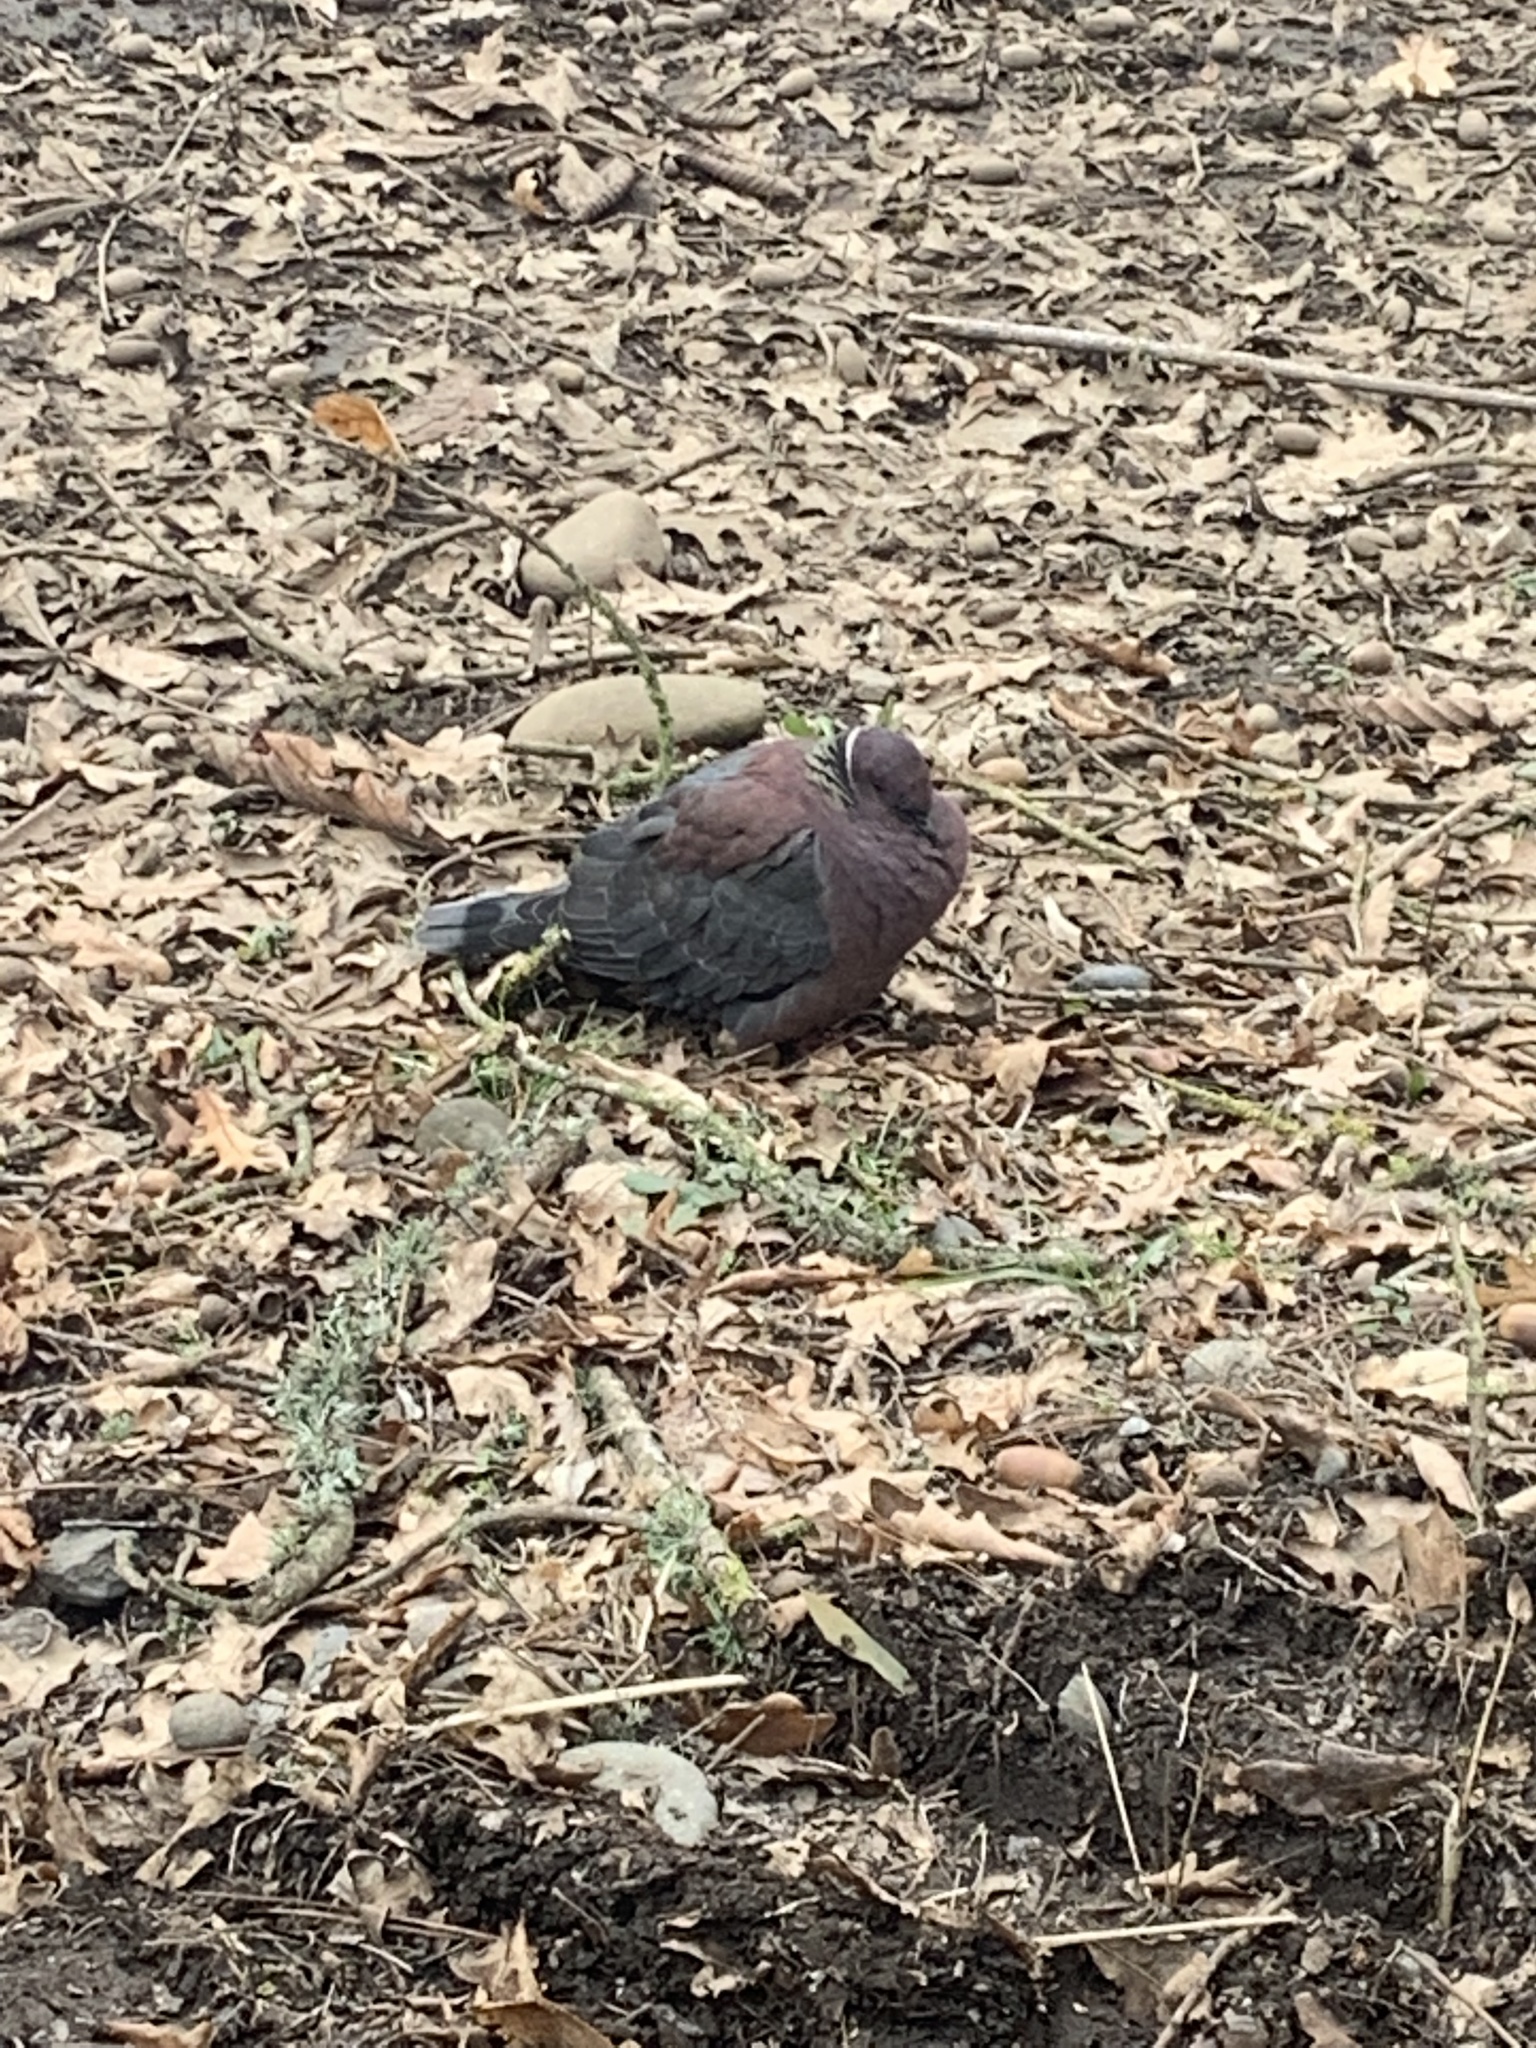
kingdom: Animalia
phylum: Chordata
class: Aves
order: Columbiformes
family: Columbidae
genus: Patagioenas
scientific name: Patagioenas araucana
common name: Chilean pigeon
